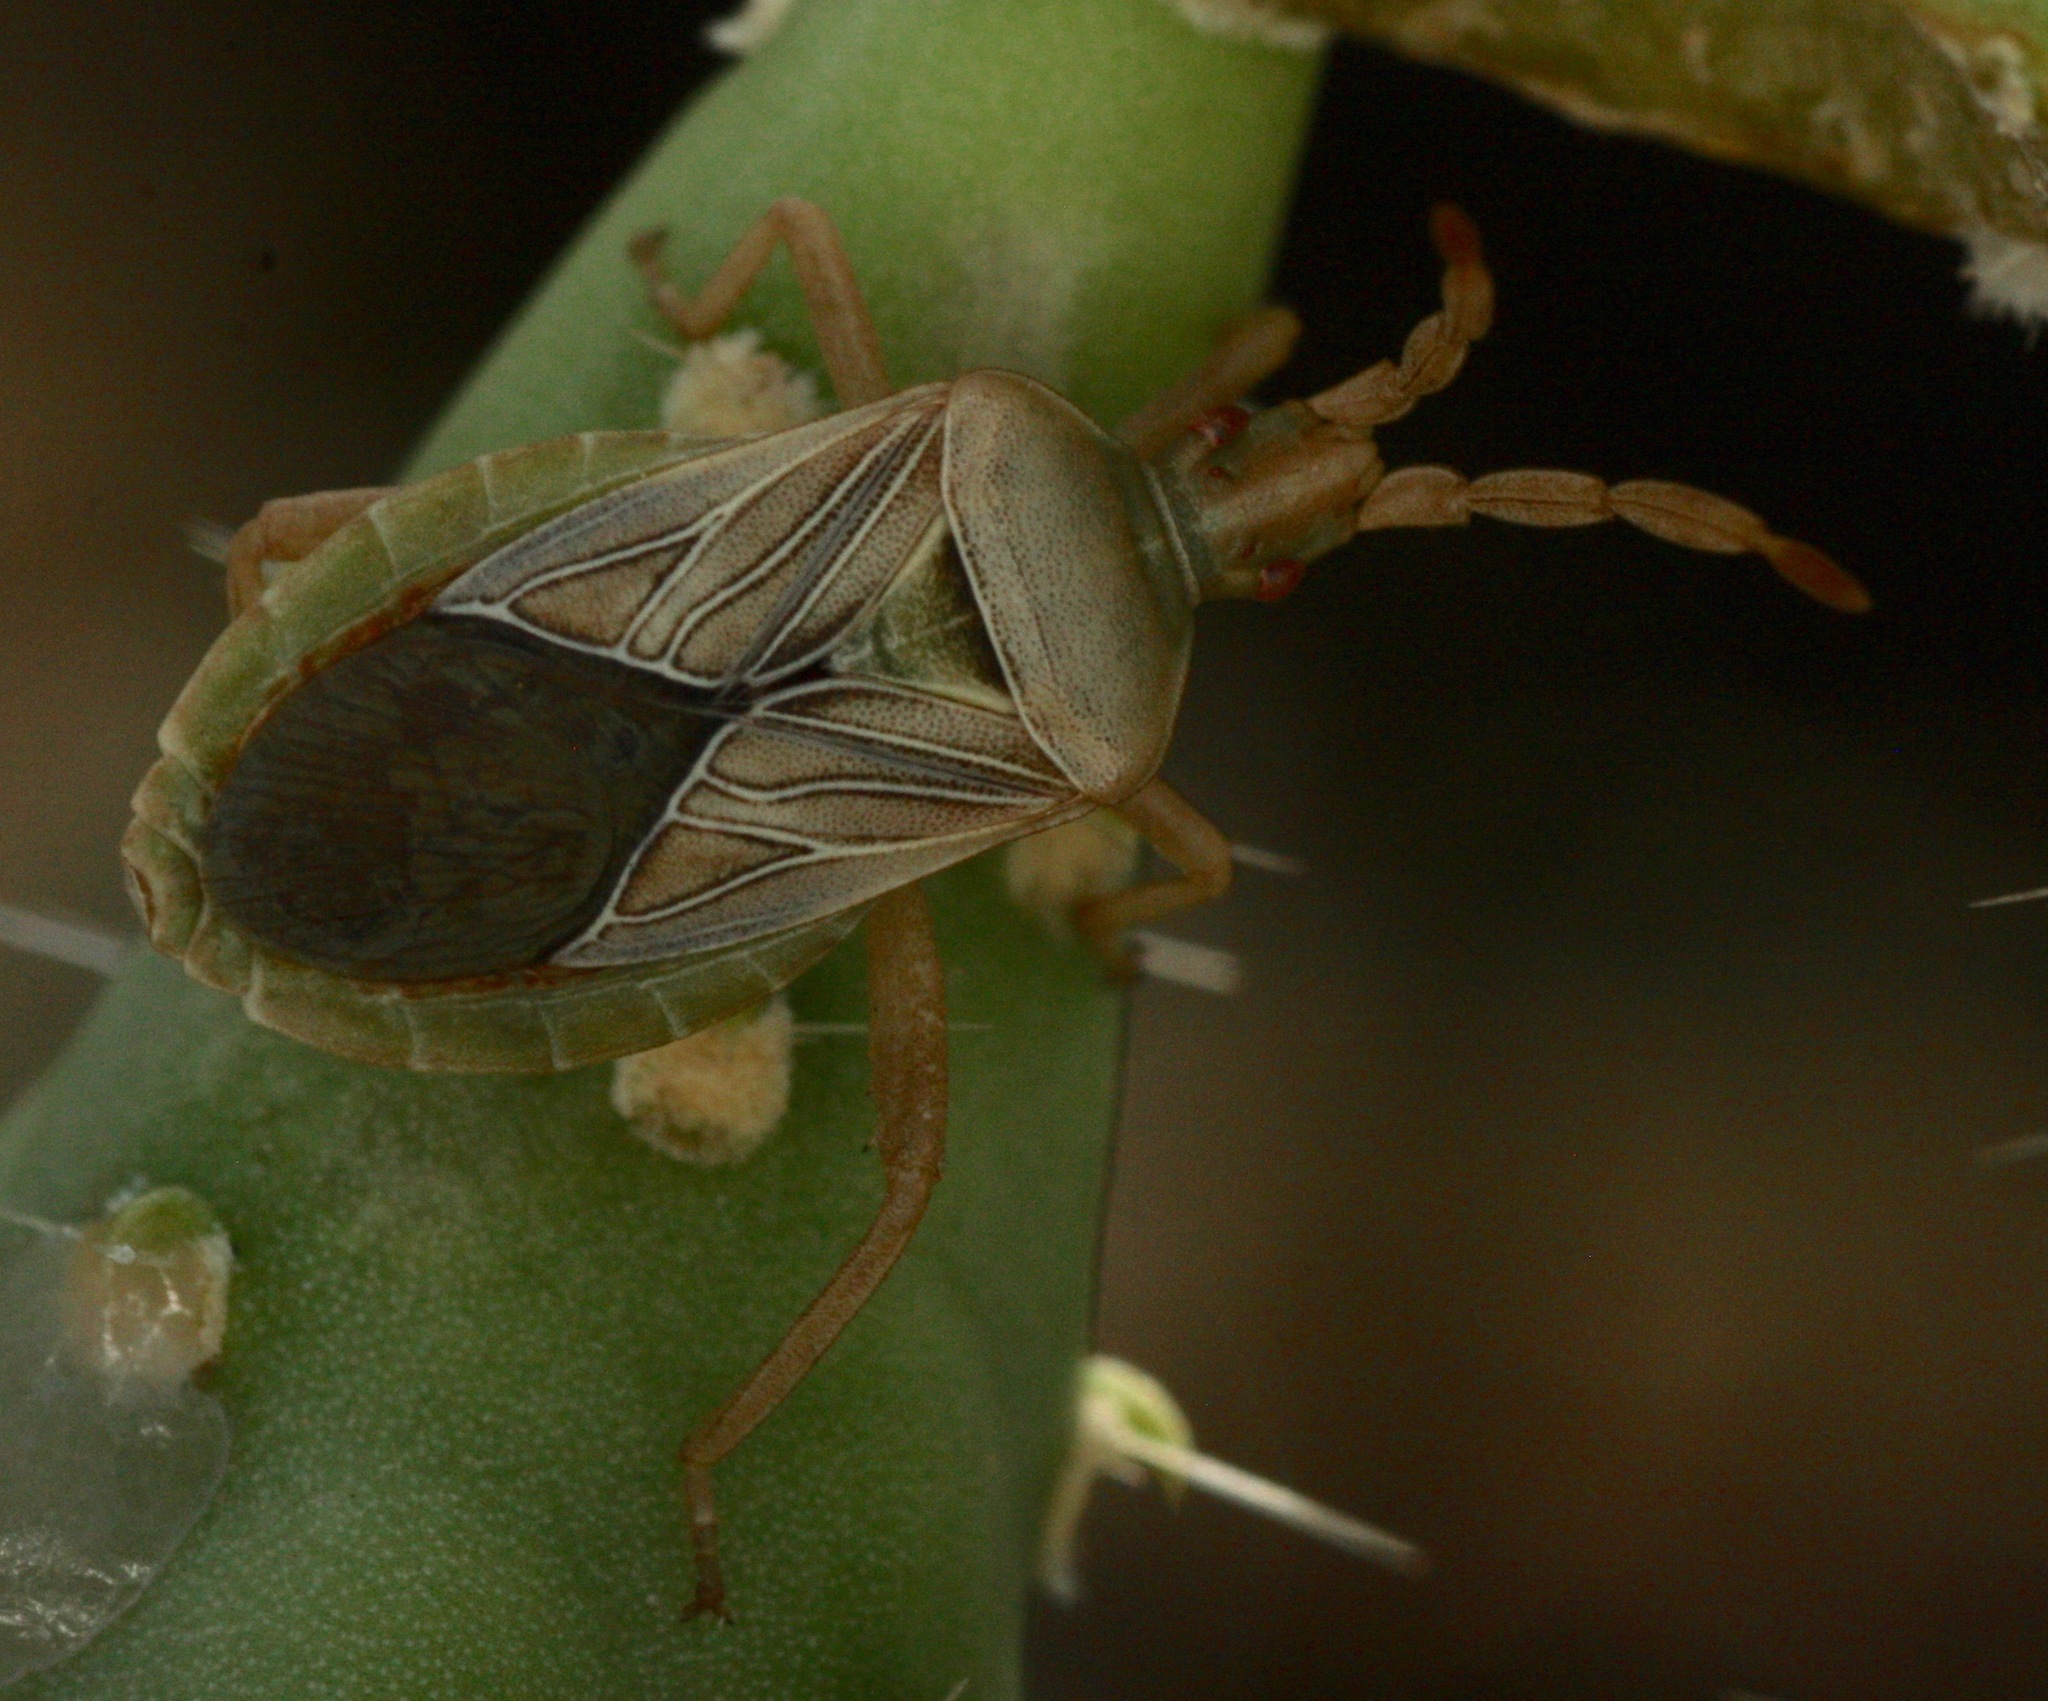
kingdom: Animalia
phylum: Arthropoda
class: Insecta
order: Hemiptera
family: Coreidae
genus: Chelinidea
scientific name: Chelinidea hunteri
